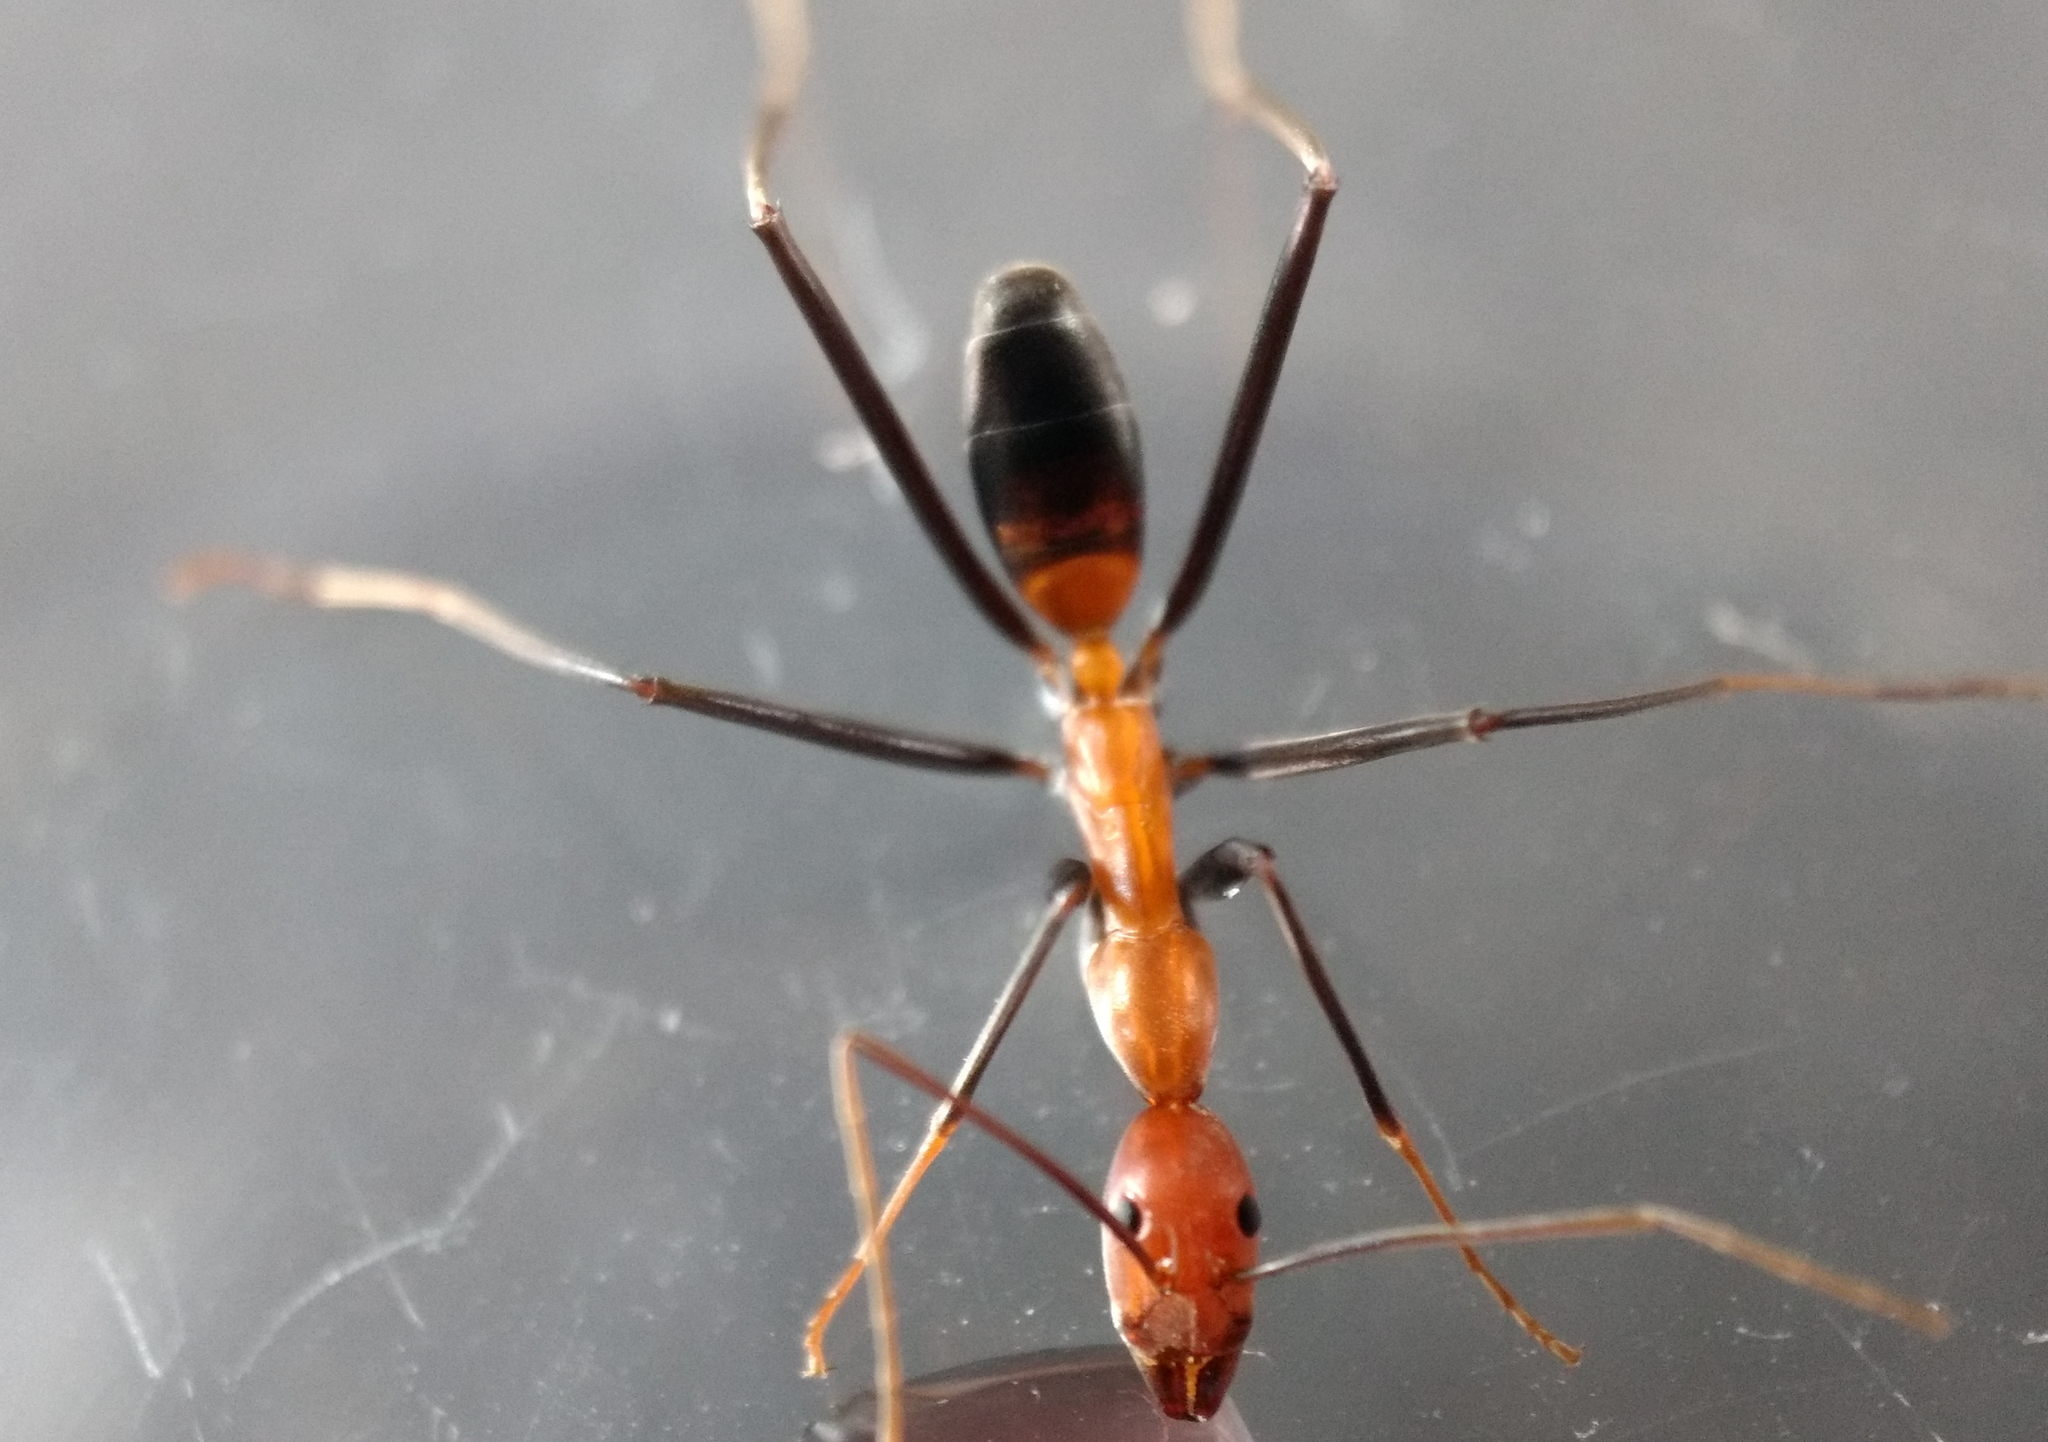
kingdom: Animalia
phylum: Arthropoda
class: Insecta
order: Hymenoptera
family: Formicidae
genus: Leptomyrmex
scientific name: Leptomyrmex rufithorax
